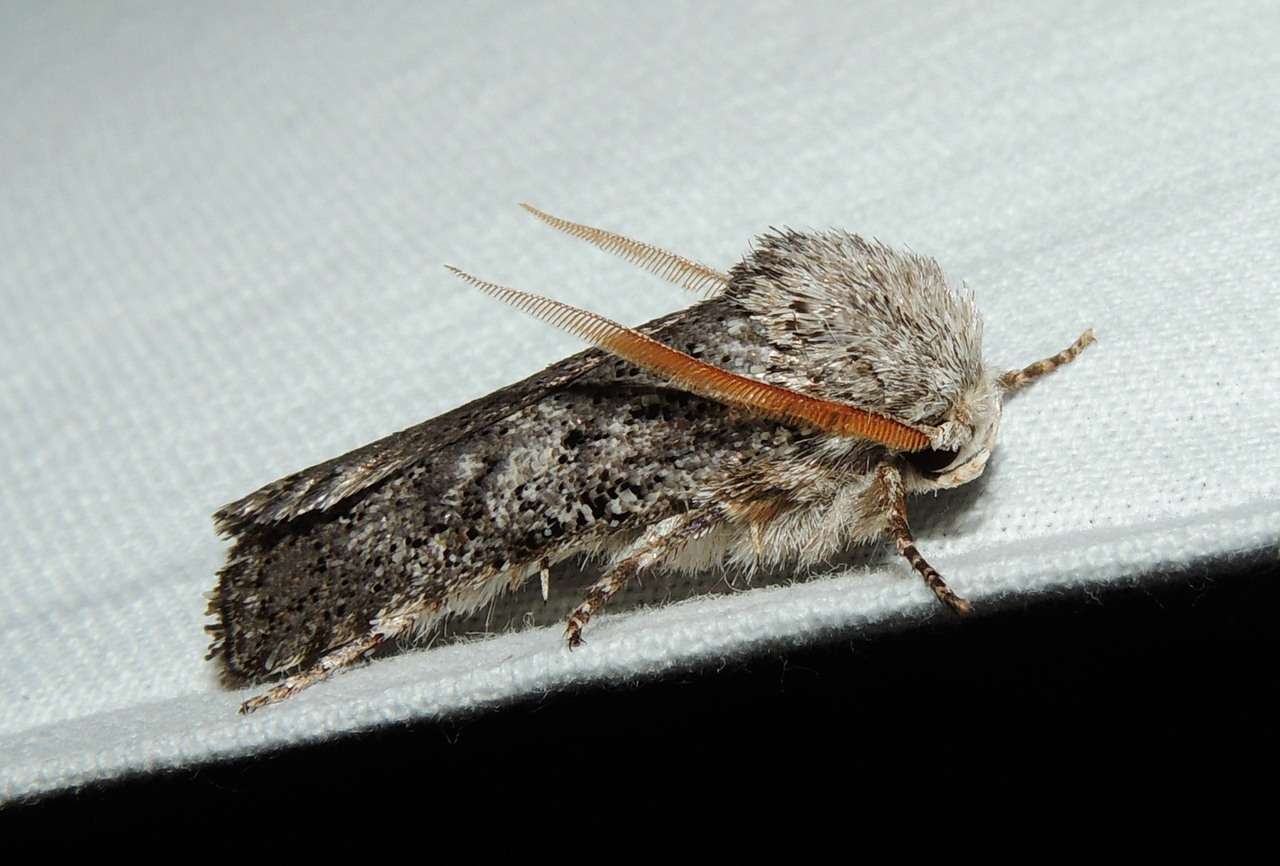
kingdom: Animalia
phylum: Arthropoda
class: Insecta
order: Lepidoptera
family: Xyloryctidae
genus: Cryptophasa
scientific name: Cryptophasa irrorata
